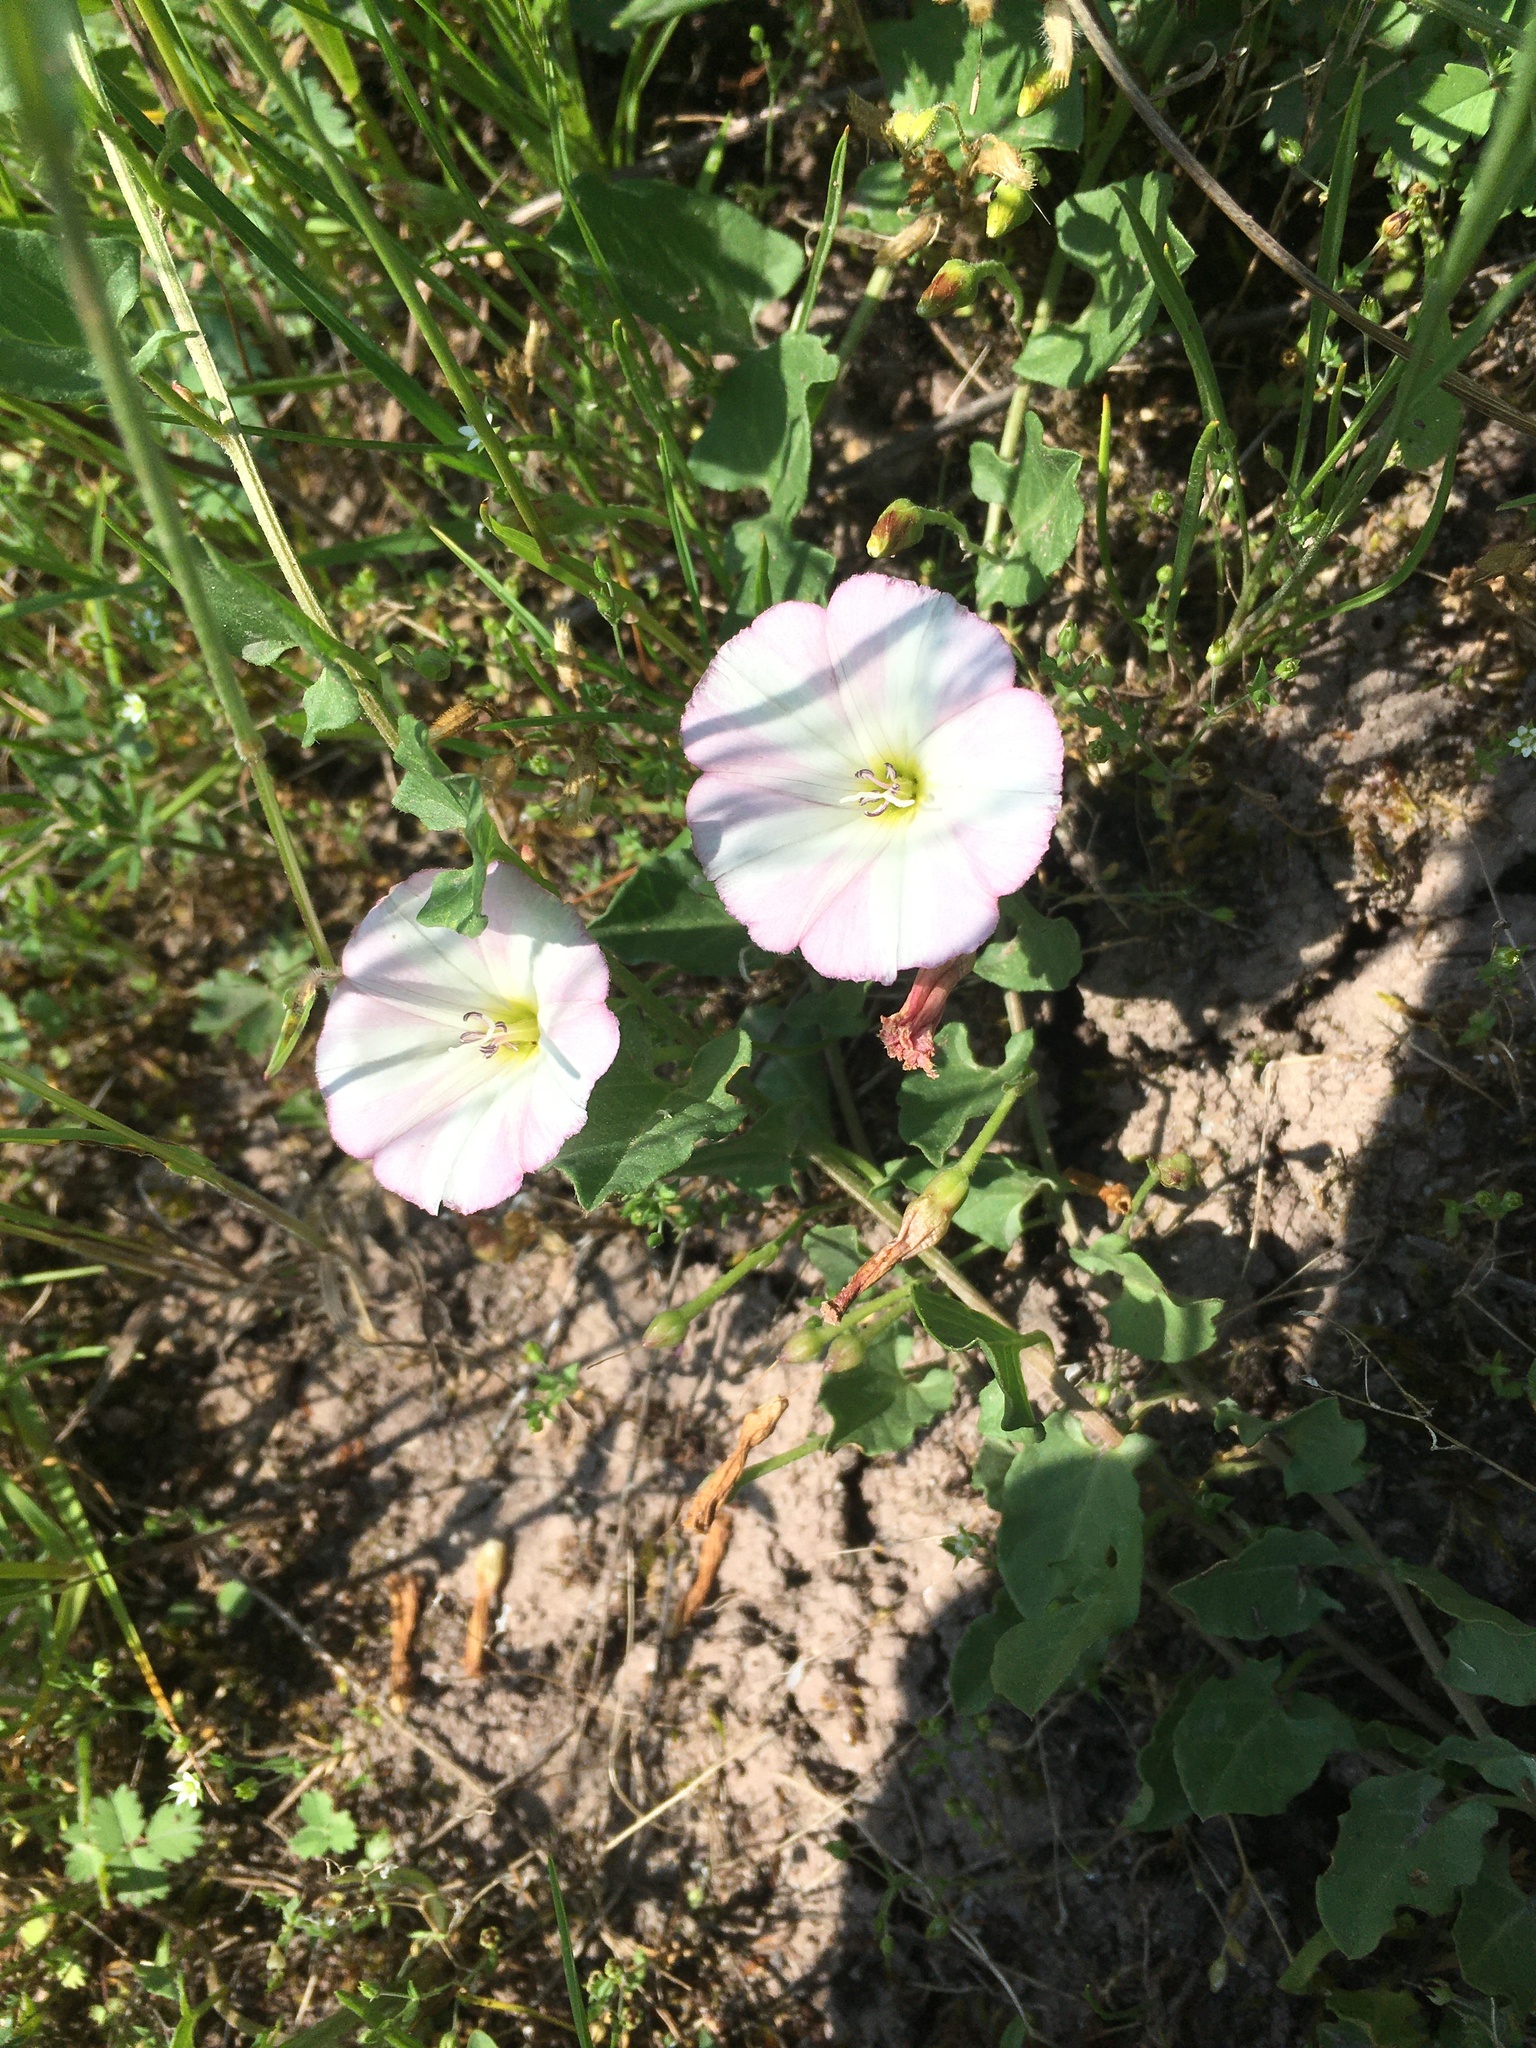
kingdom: Plantae
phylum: Tracheophyta
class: Magnoliopsida
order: Solanales
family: Convolvulaceae
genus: Convolvulus
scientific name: Convolvulus arvensis
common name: Field bindweed
